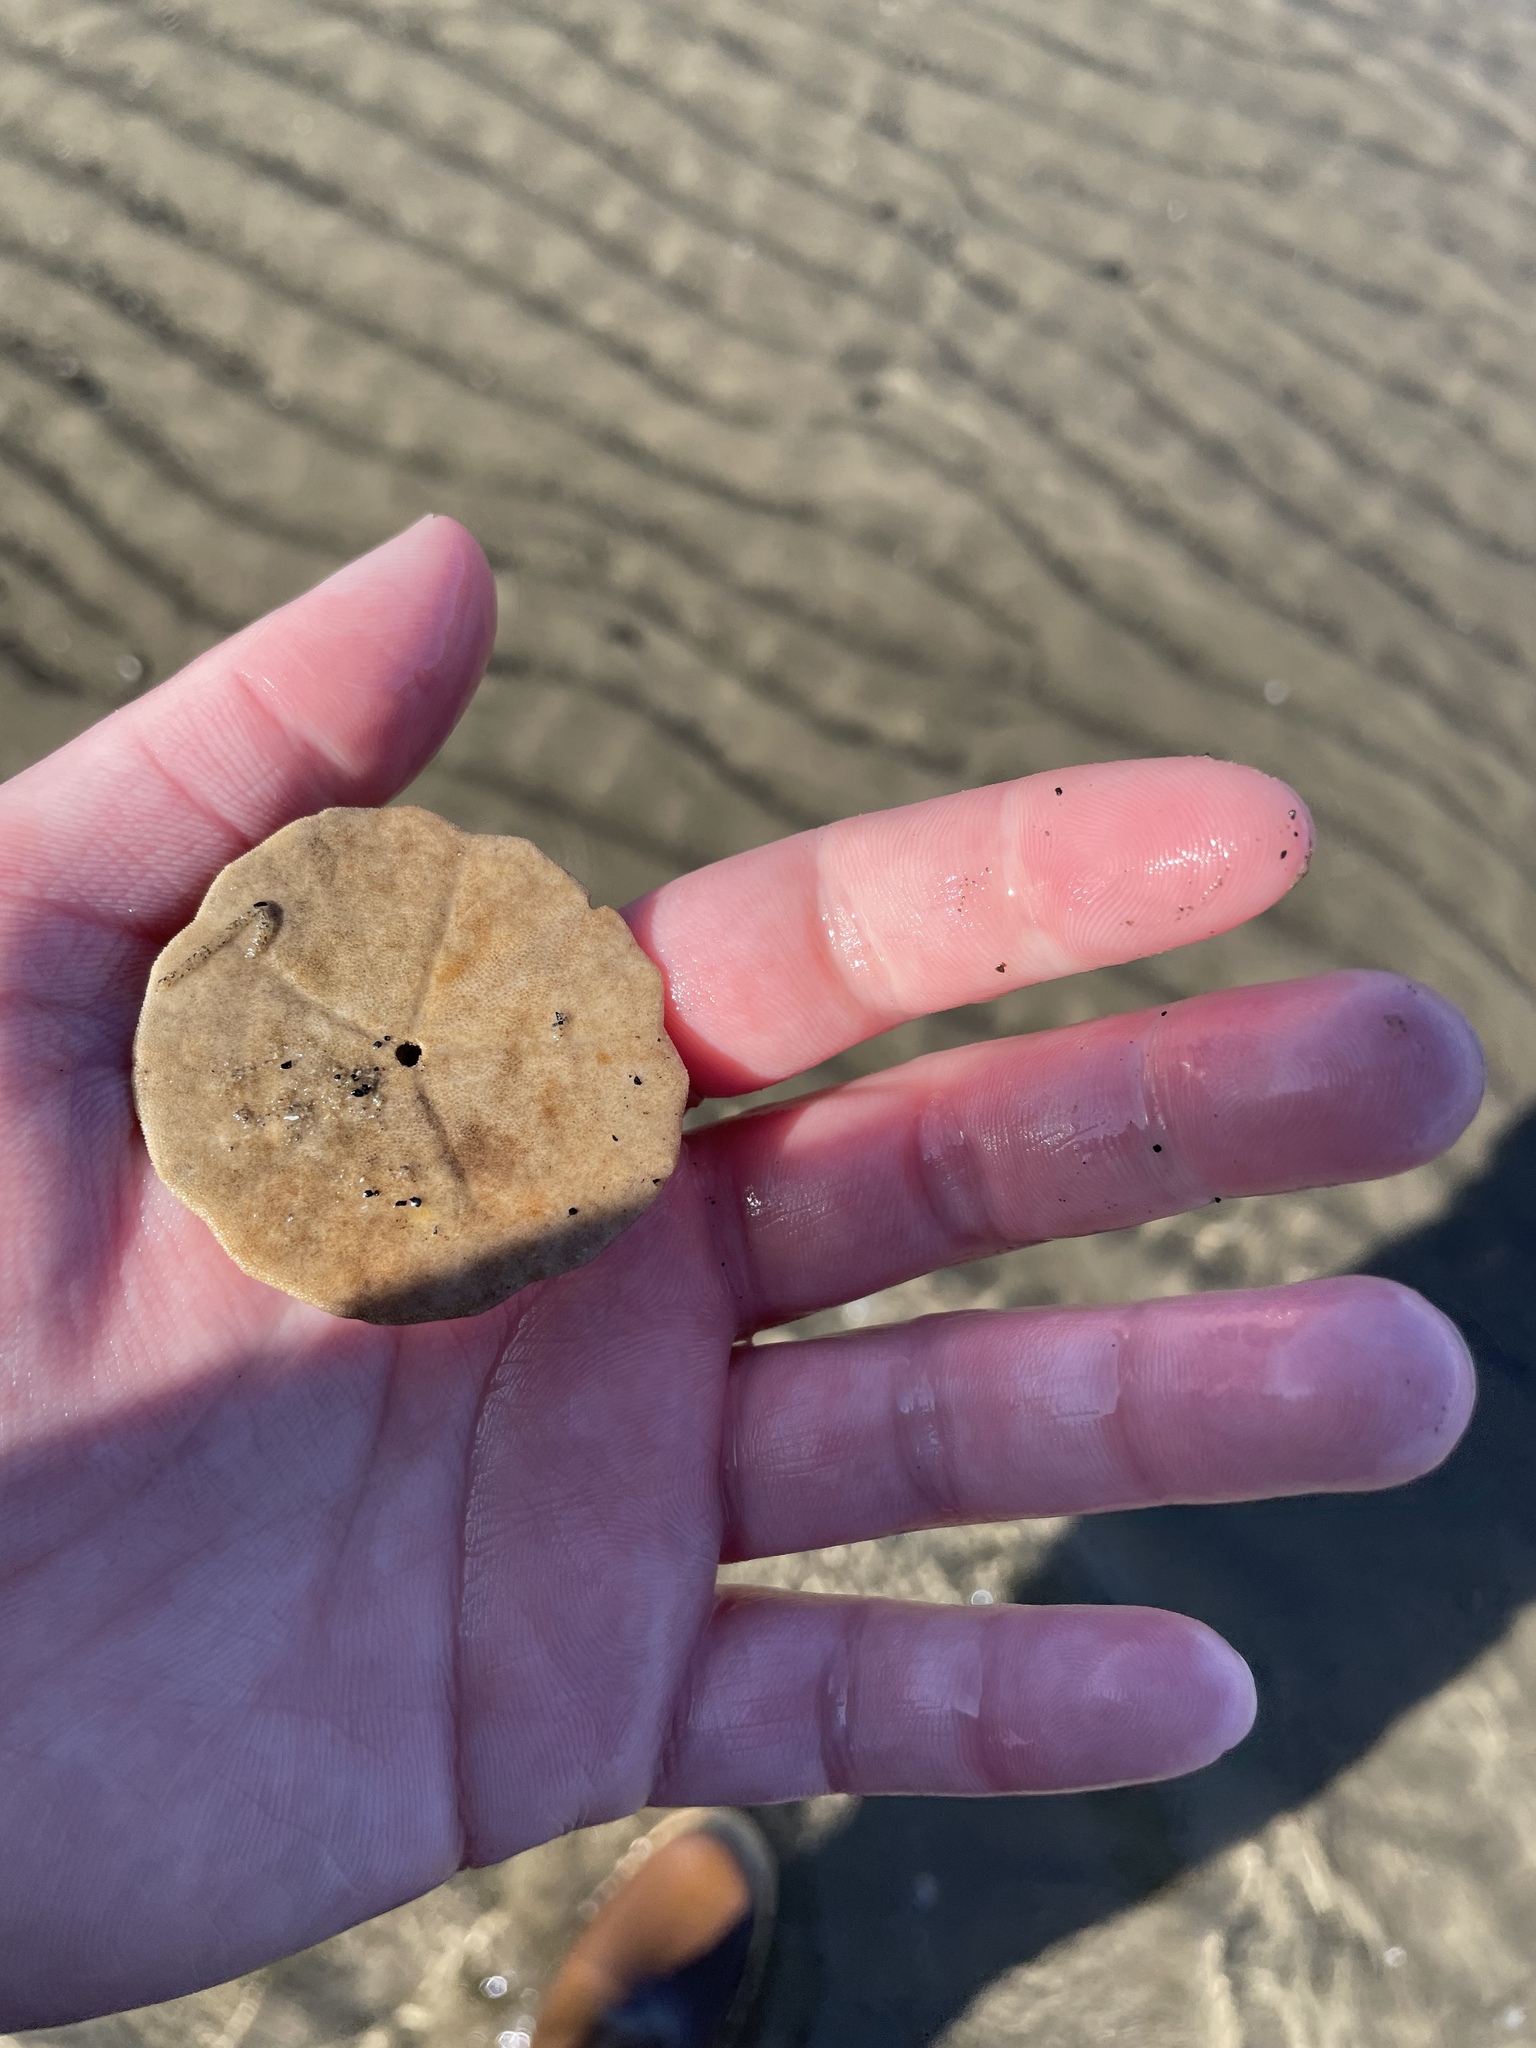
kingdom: Animalia
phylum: Echinodermata
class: Echinoidea
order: Echinolampadacea
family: Echinarachniidae
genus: Echinarachnius
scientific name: Echinarachnius parma
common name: Common sand dollar
